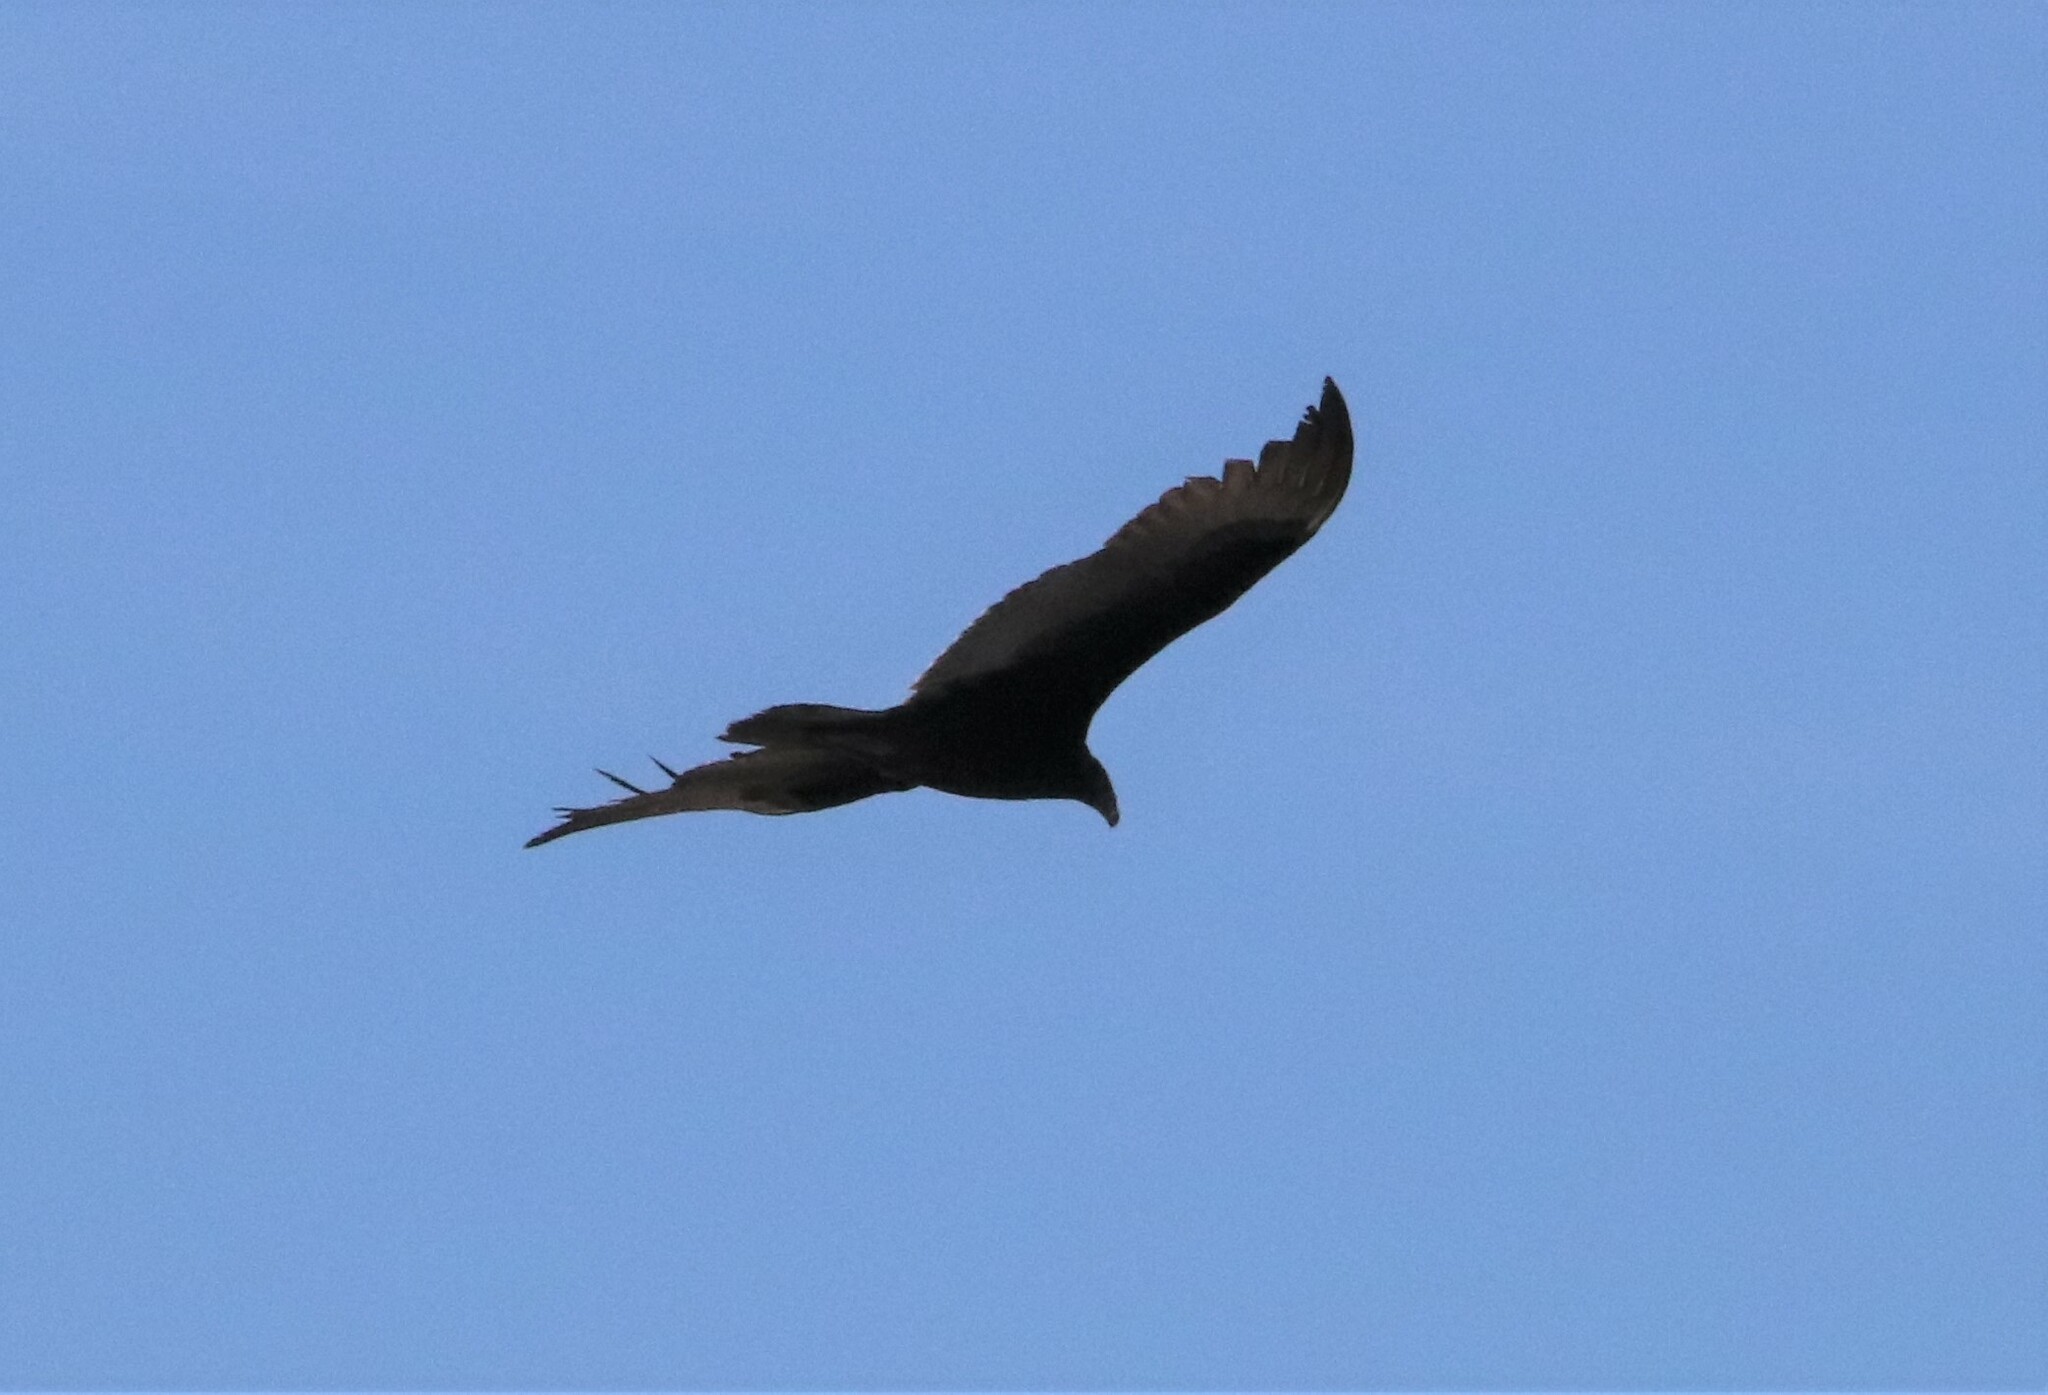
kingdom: Animalia
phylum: Chordata
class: Aves
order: Accipitriformes
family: Cathartidae
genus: Cathartes
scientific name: Cathartes aura
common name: Turkey vulture
